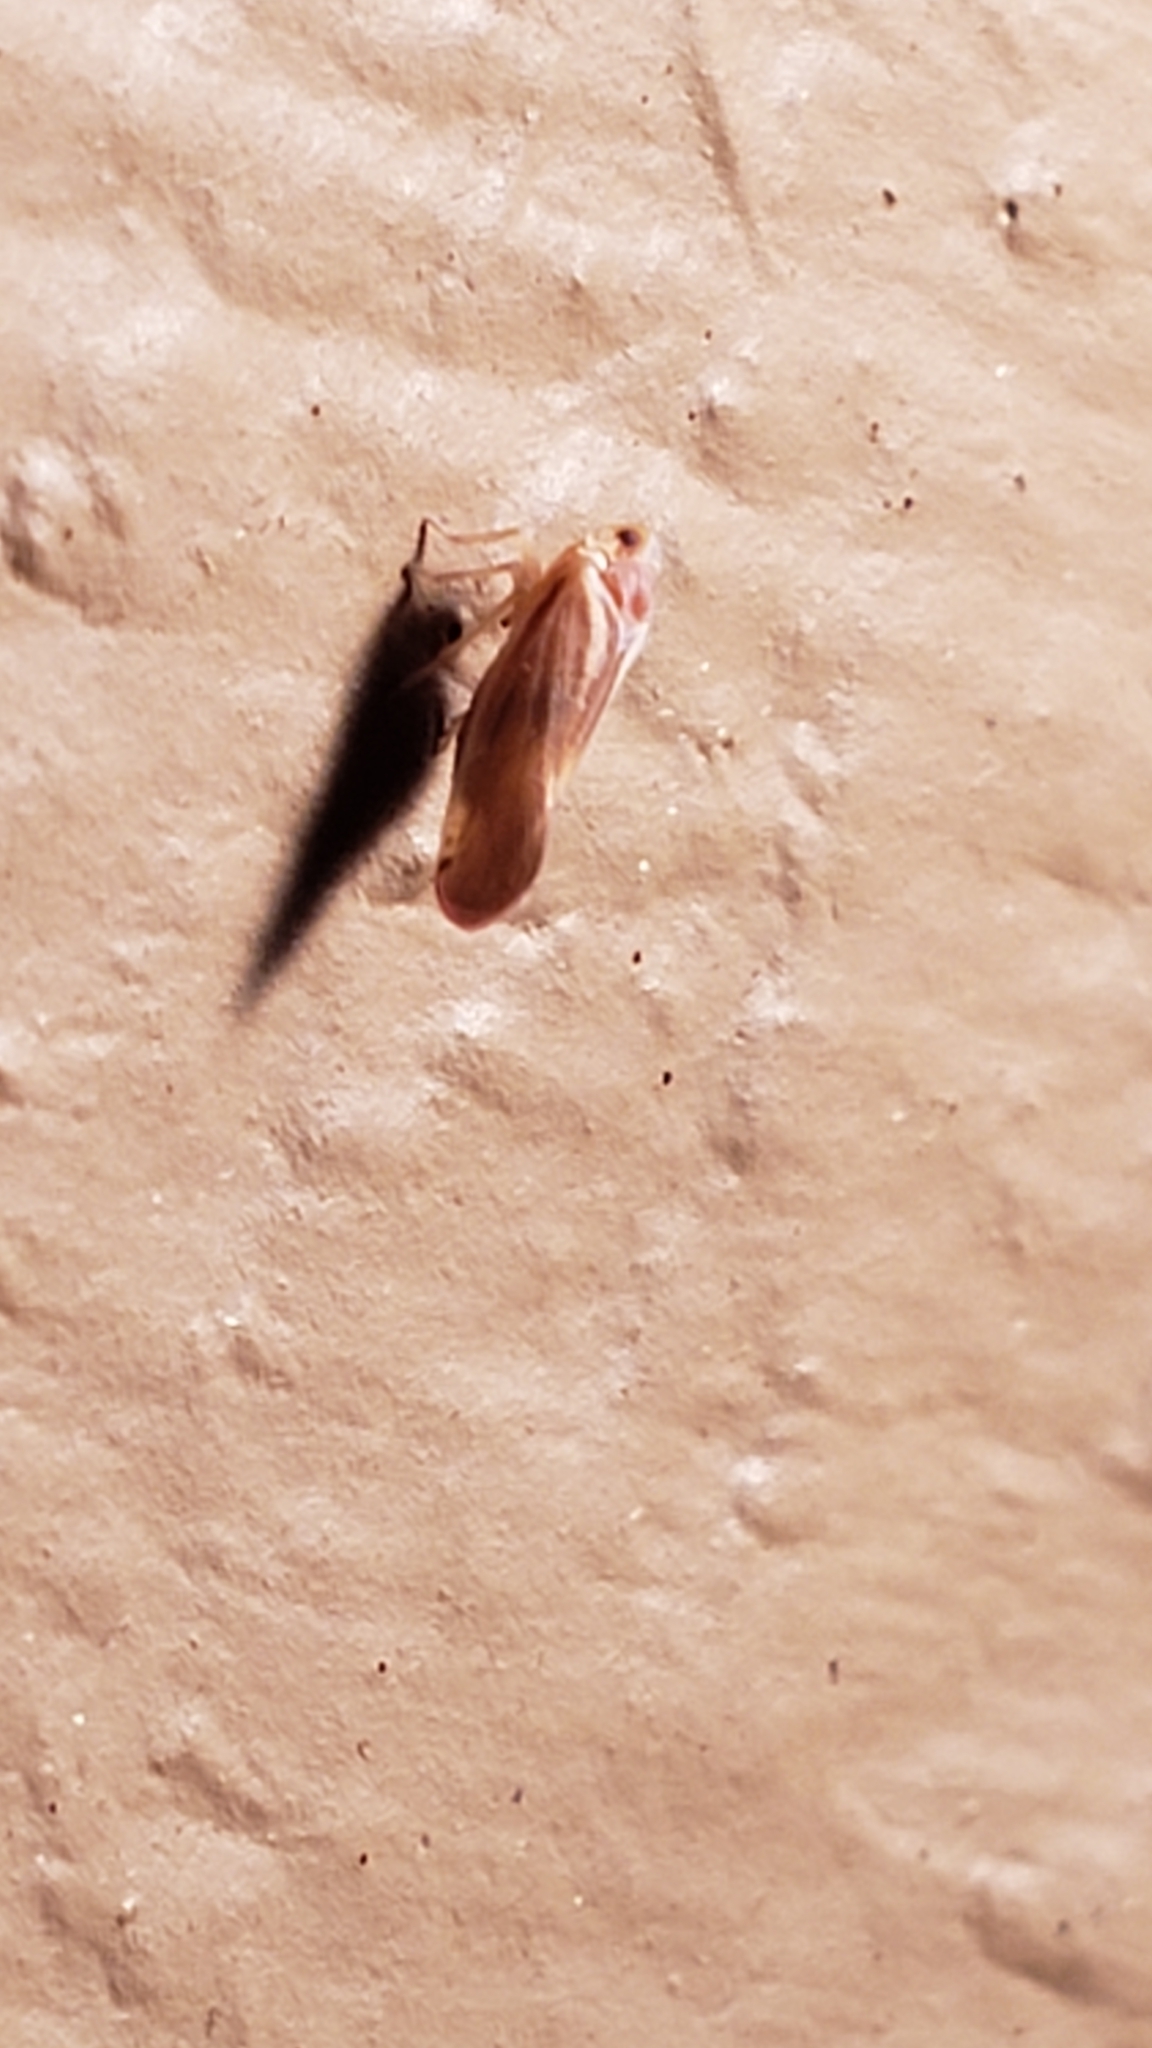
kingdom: Animalia
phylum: Arthropoda
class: Insecta
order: Hemiptera
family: Derbidae
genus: Omolicna
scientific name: Omolicna uhleri
